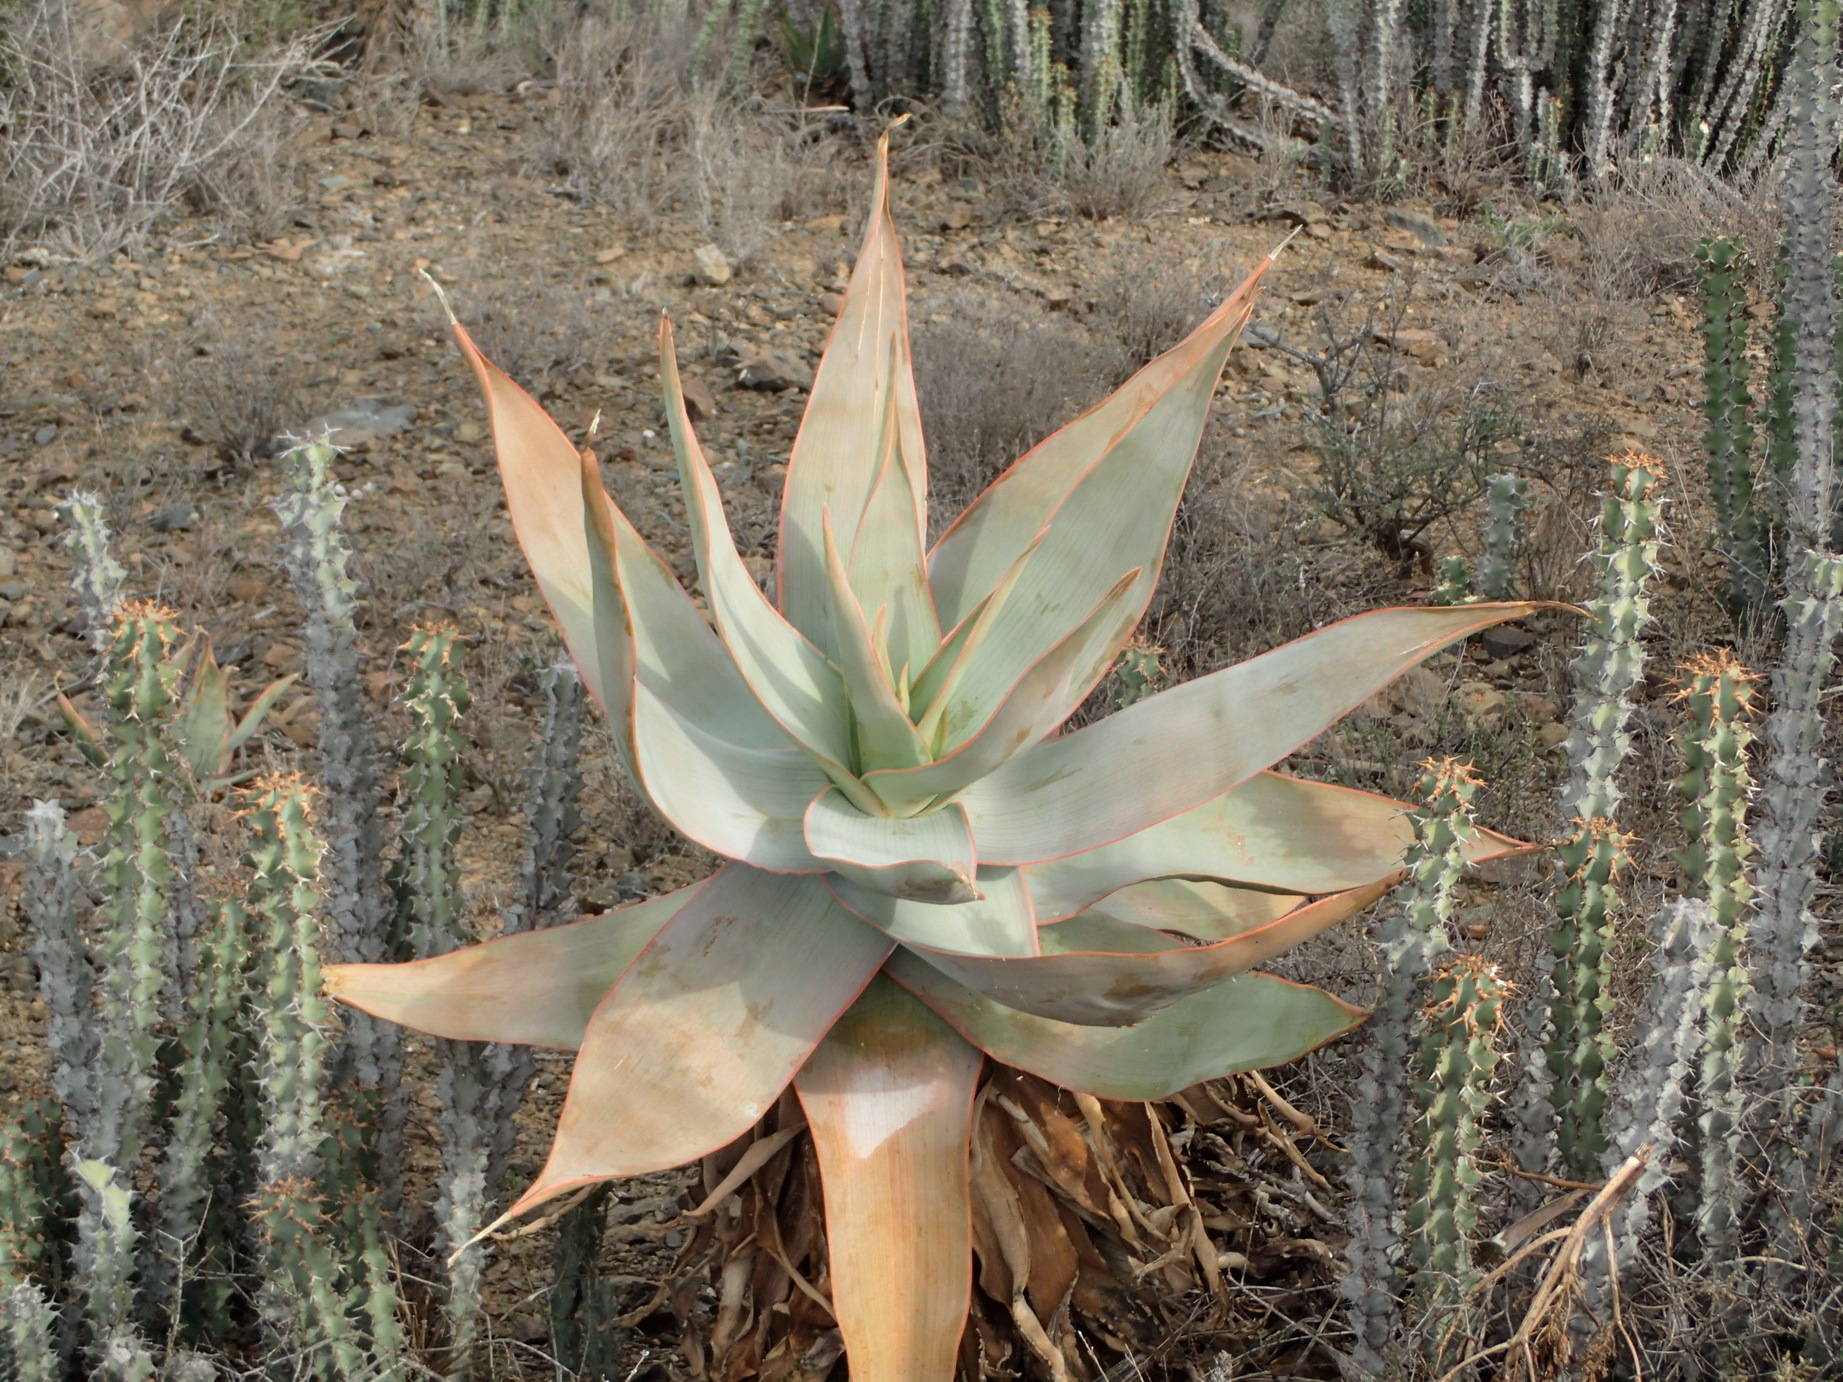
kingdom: Plantae
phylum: Tracheophyta
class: Liliopsida
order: Asparagales
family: Asphodelaceae
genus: Aloe
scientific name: Aloe striata
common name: Coral aloe
